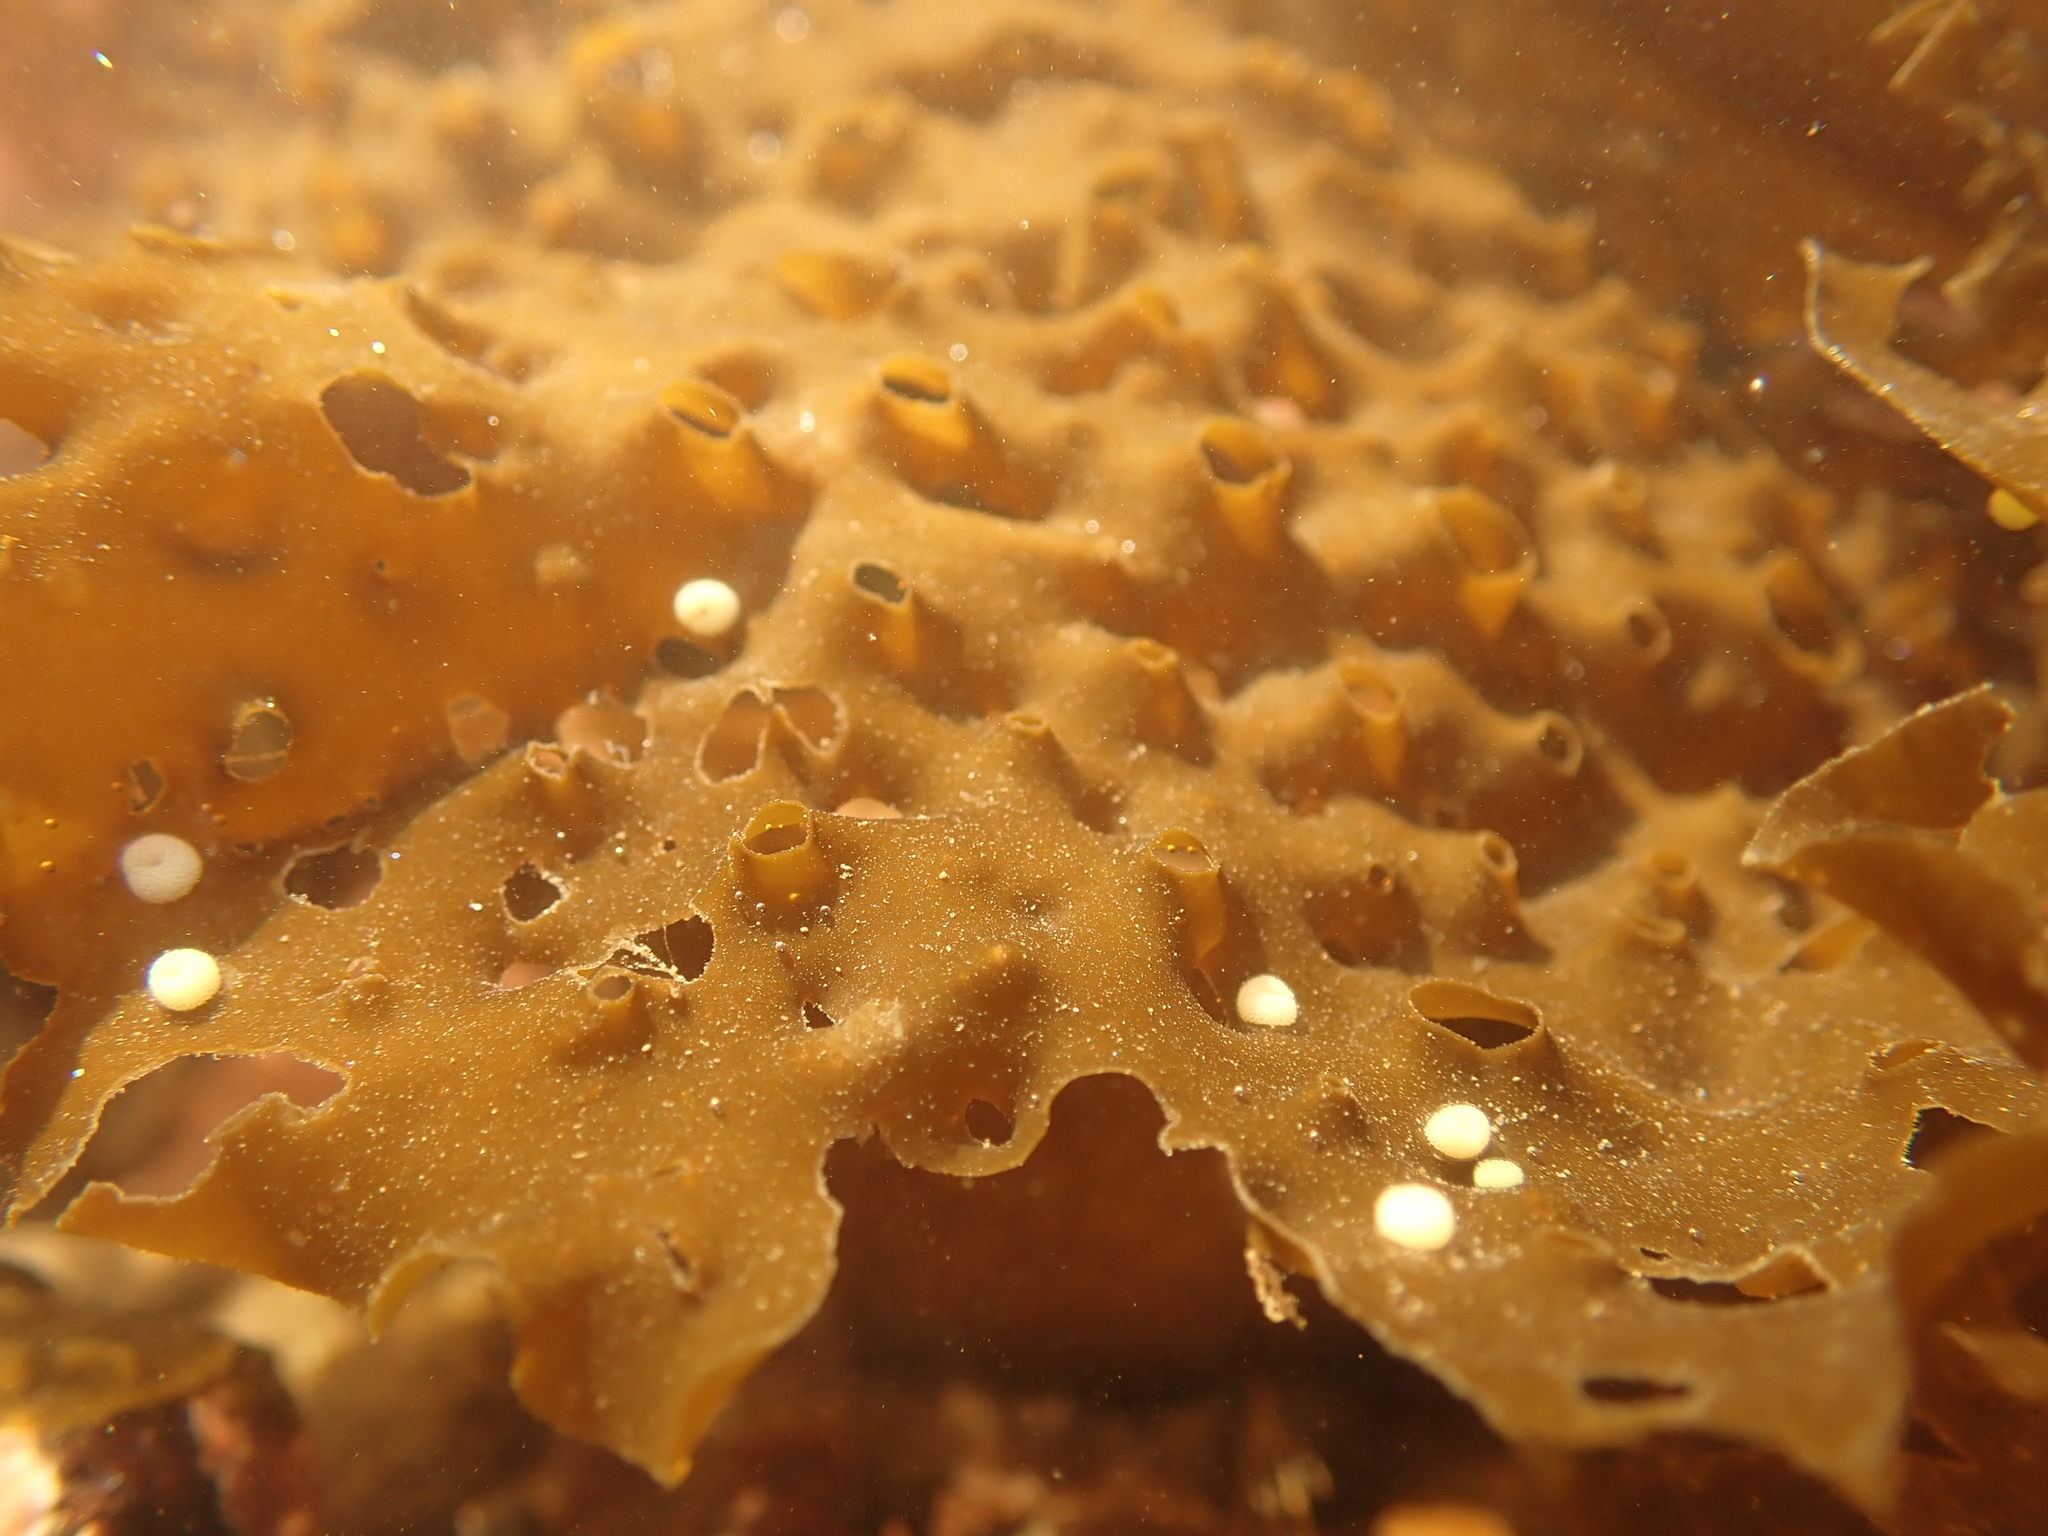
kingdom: Animalia
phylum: Mollusca
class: Gastropoda
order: Littorinimorpha
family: Littorinidae
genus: Lacuna
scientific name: Lacuna vincta
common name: Banded chink shell
